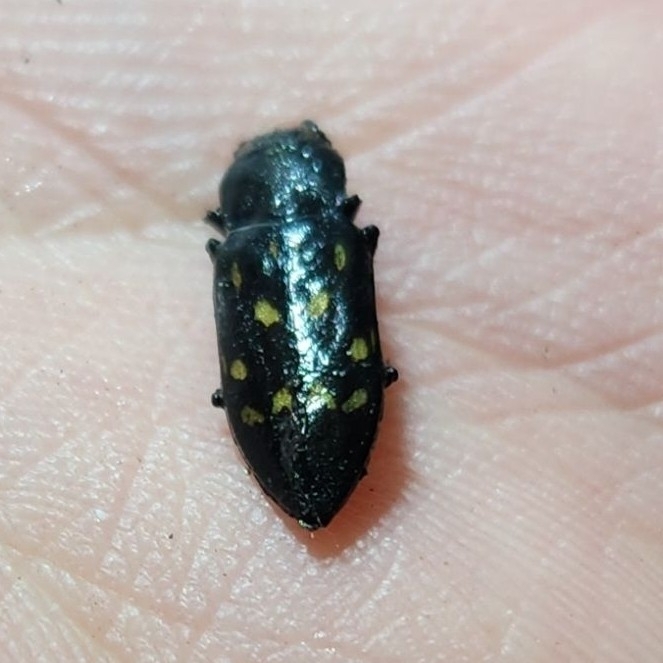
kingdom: Animalia
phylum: Arthropoda
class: Insecta
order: Coleoptera
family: Buprestidae
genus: Melanophila
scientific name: Melanophila consputa
